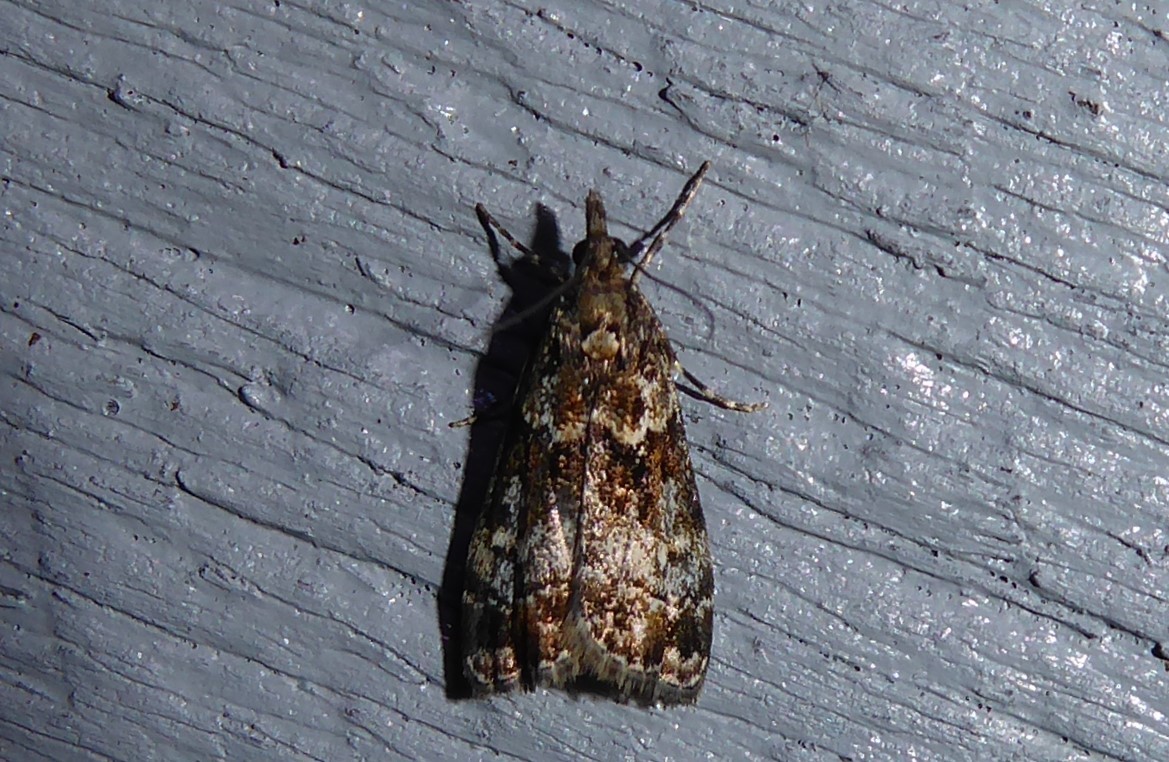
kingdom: Animalia
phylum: Arthropoda
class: Insecta
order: Lepidoptera
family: Crambidae
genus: Eudonia
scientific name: Eudonia minualis
